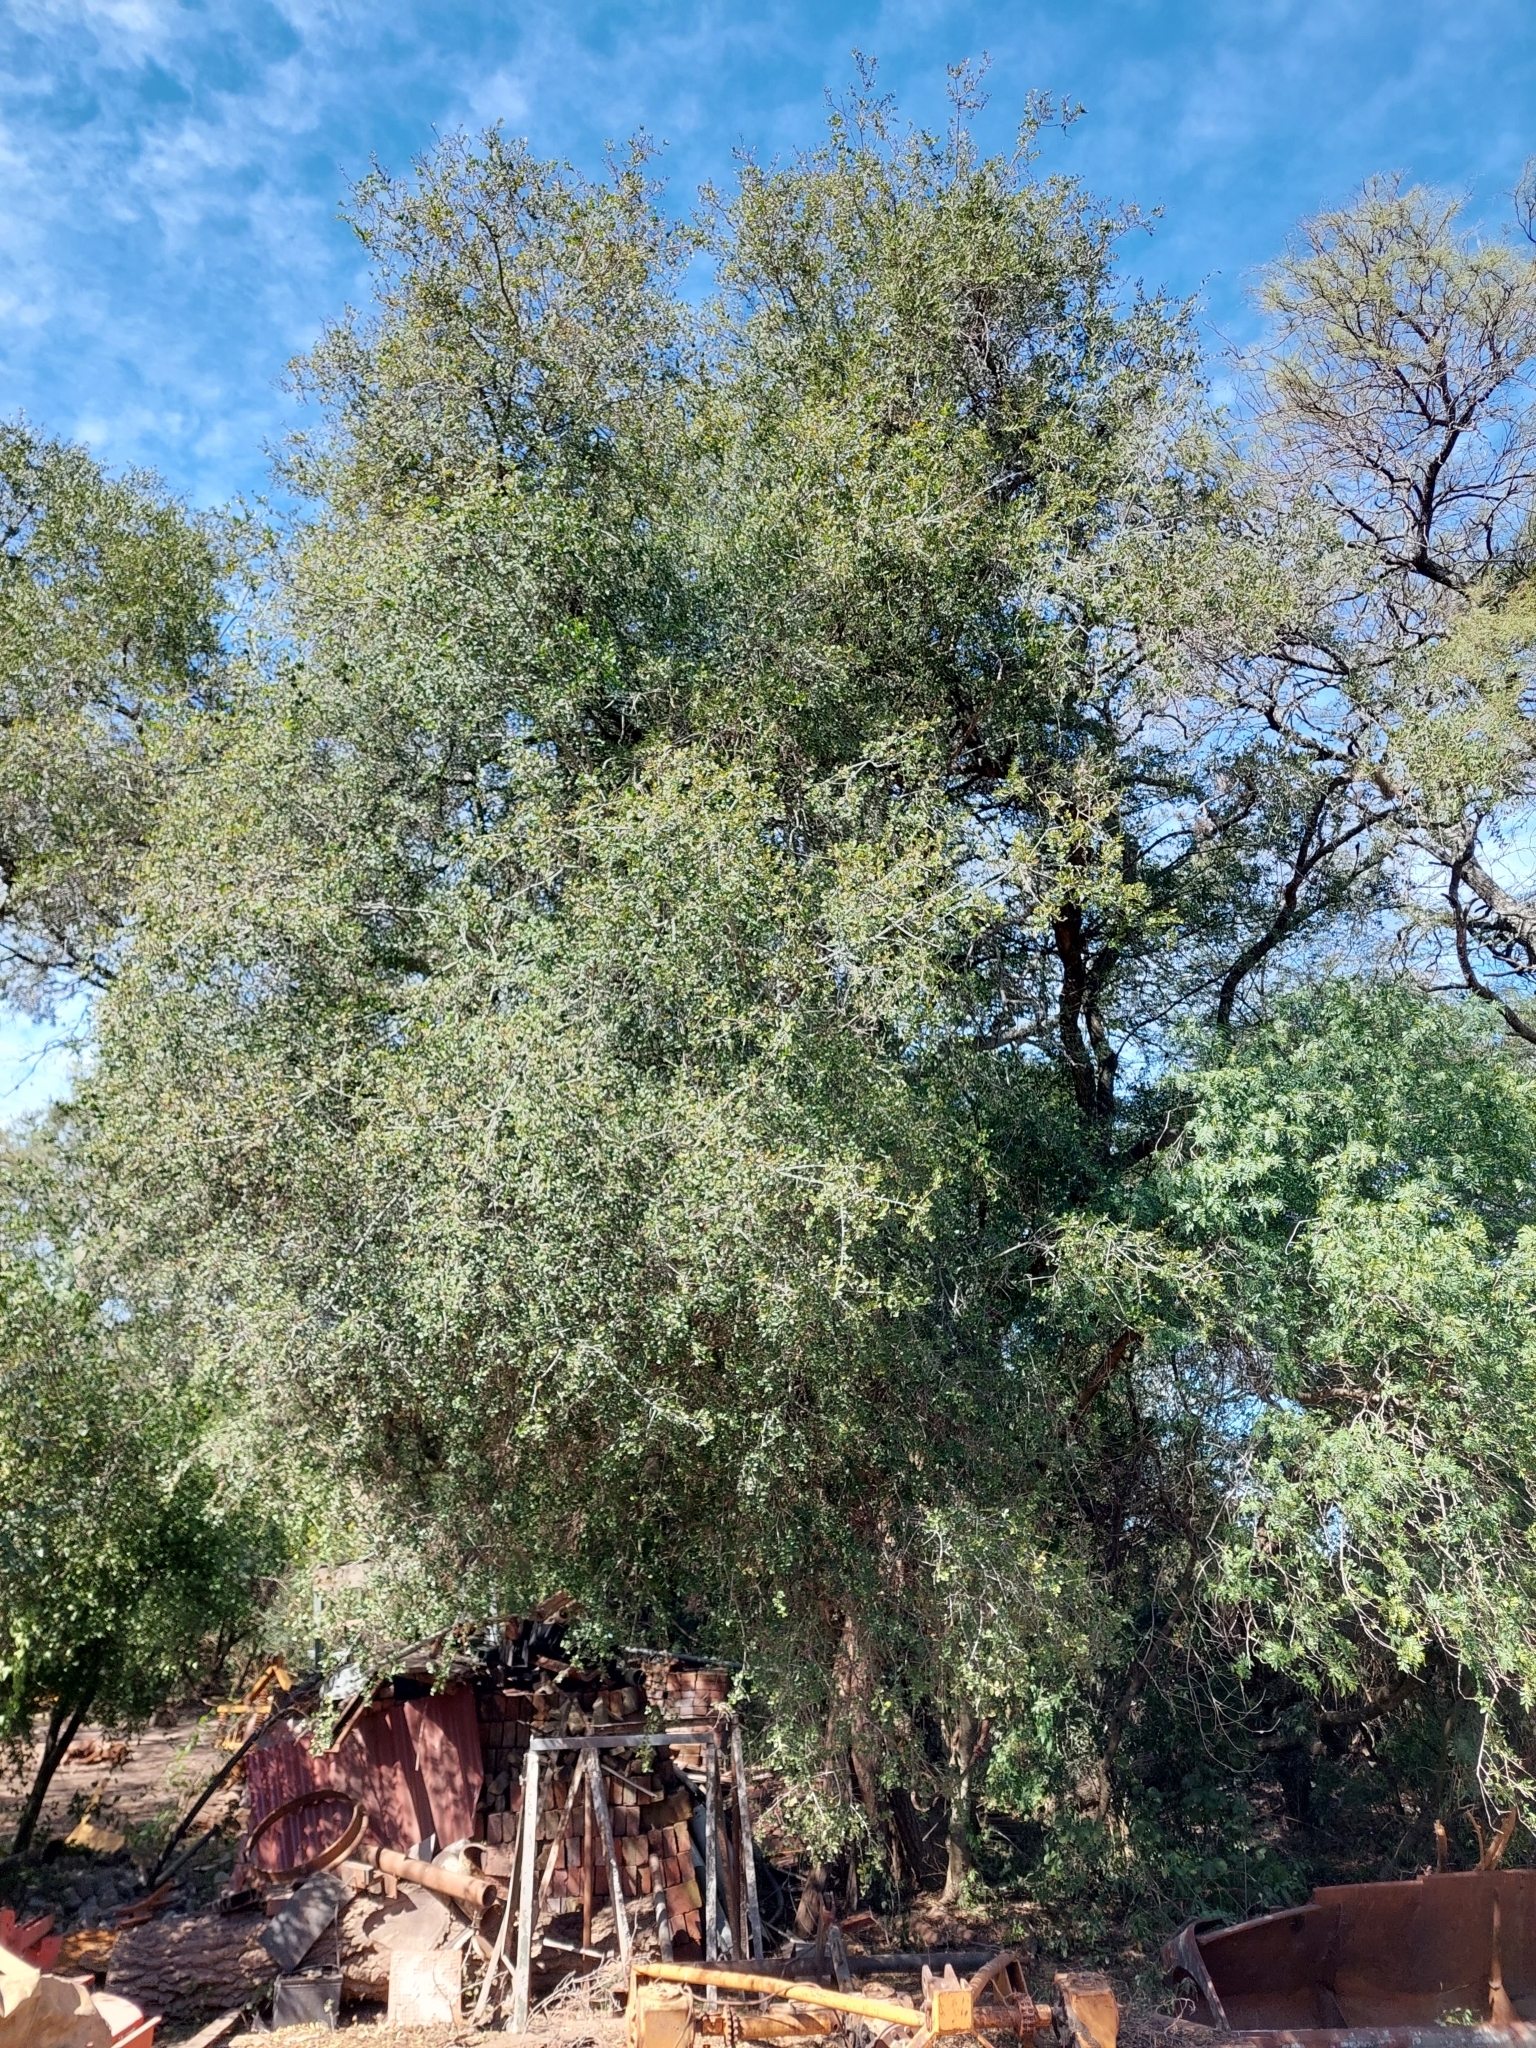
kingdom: Plantae
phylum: Tracheophyta
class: Magnoliopsida
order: Rosales
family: Rhamnaceae
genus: Scutia
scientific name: Scutia buxifolia
